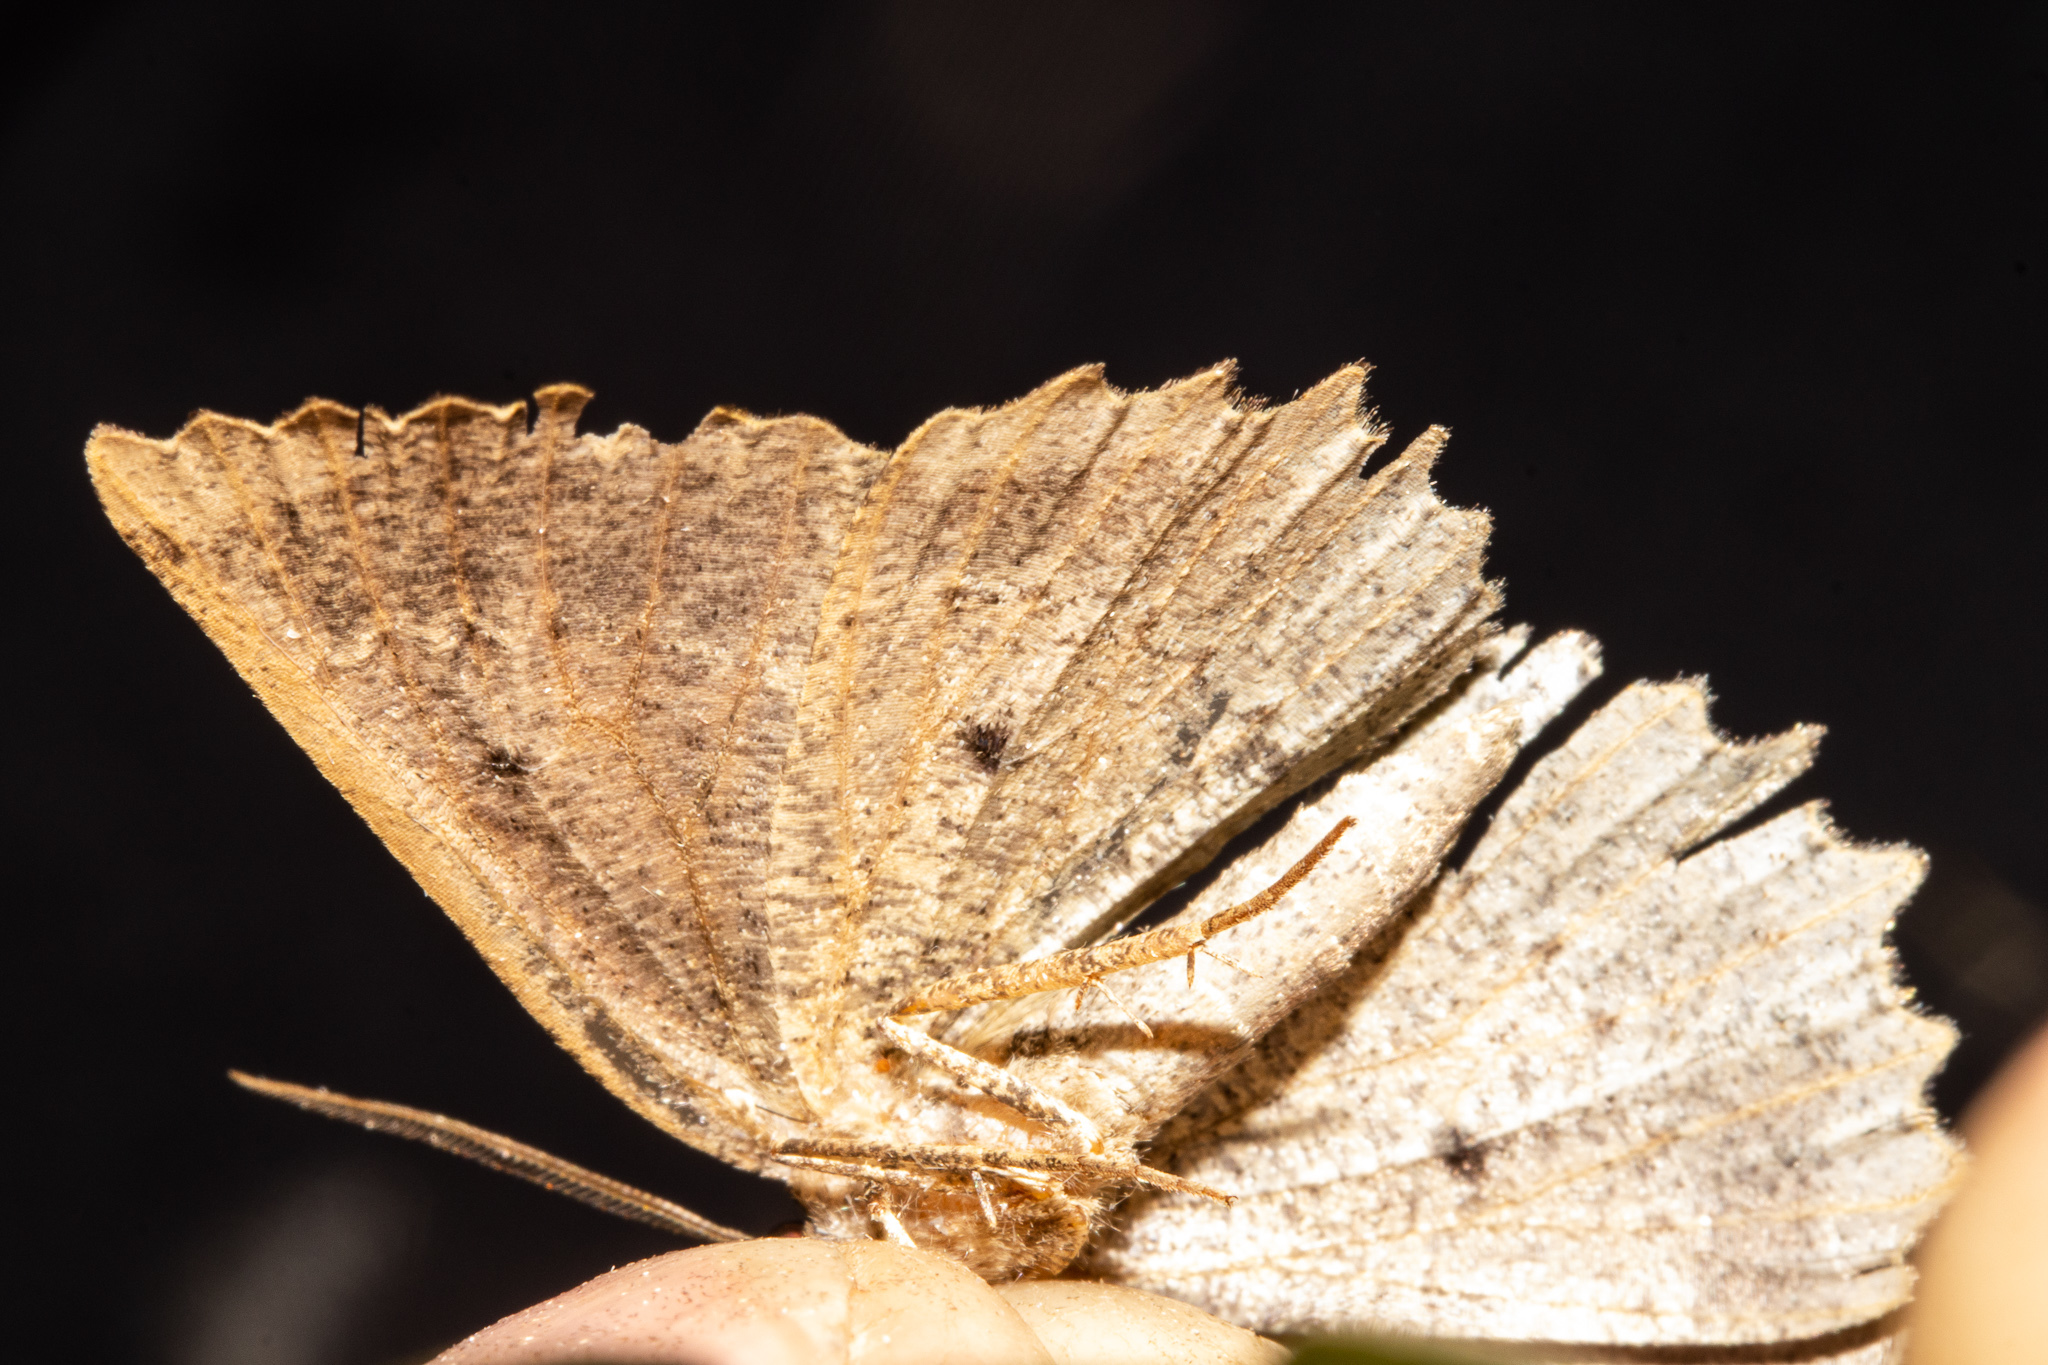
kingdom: Animalia
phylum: Arthropoda
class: Insecta
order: Lepidoptera
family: Geometridae
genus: Gellonia
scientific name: Gellonia pannularia
